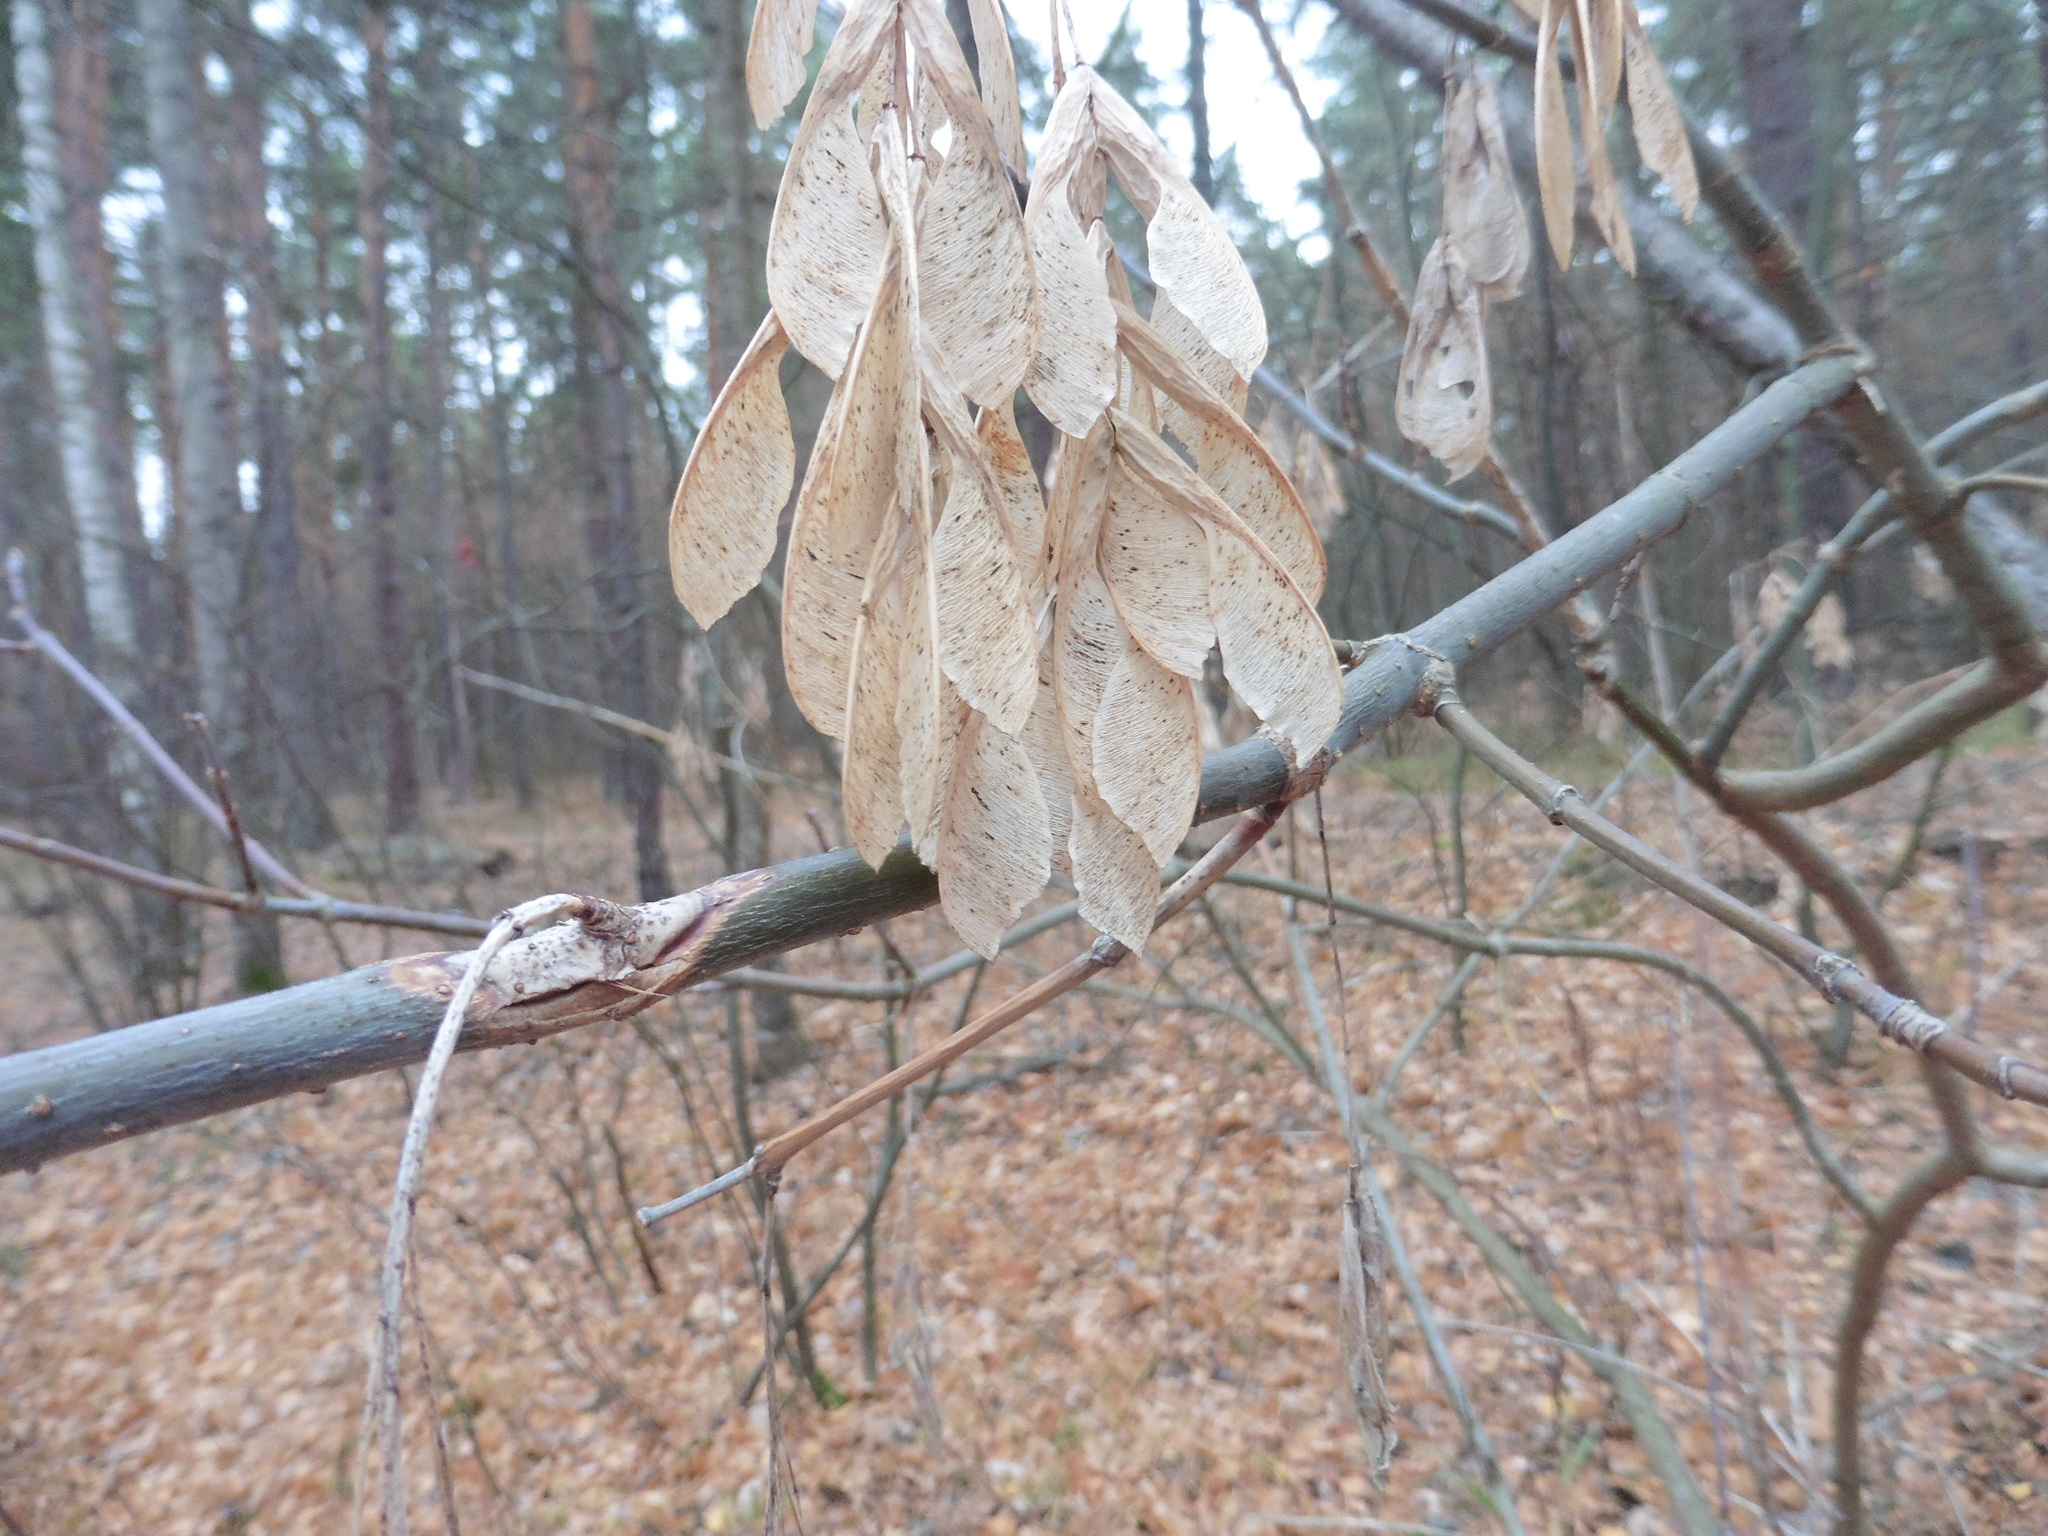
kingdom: Plantae
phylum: Tracheophyta
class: Magnoliopsida
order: Sapindales
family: Sapindaceae
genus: Acer
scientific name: Acer negundo
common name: Ashleaf maple
